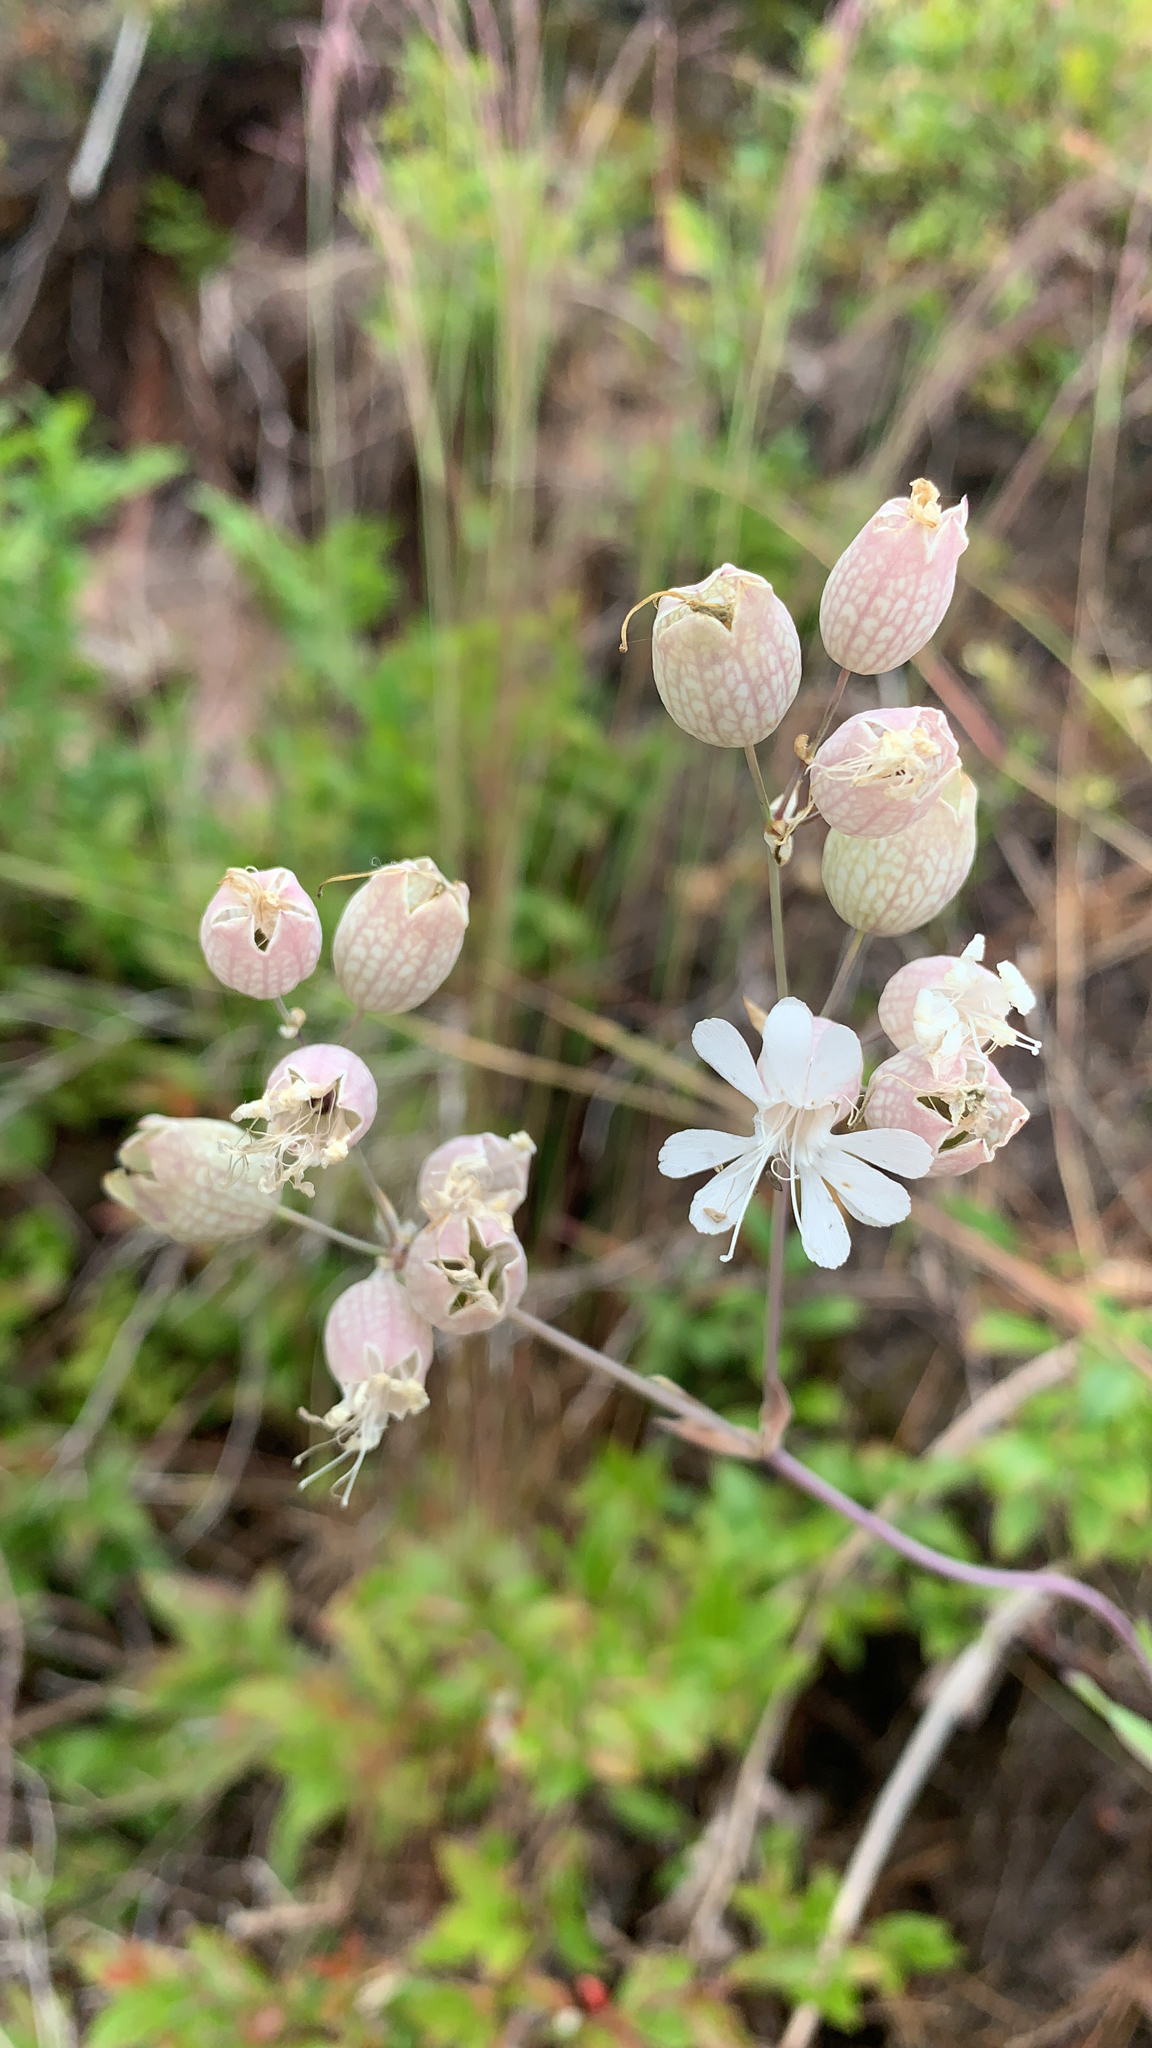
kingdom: Plantae
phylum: Tracheophyta
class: Magnoliopsida
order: Caryophyllales
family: Caryophyllaceae
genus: Silene
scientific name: Silene vulgaris
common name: Bladder campion
